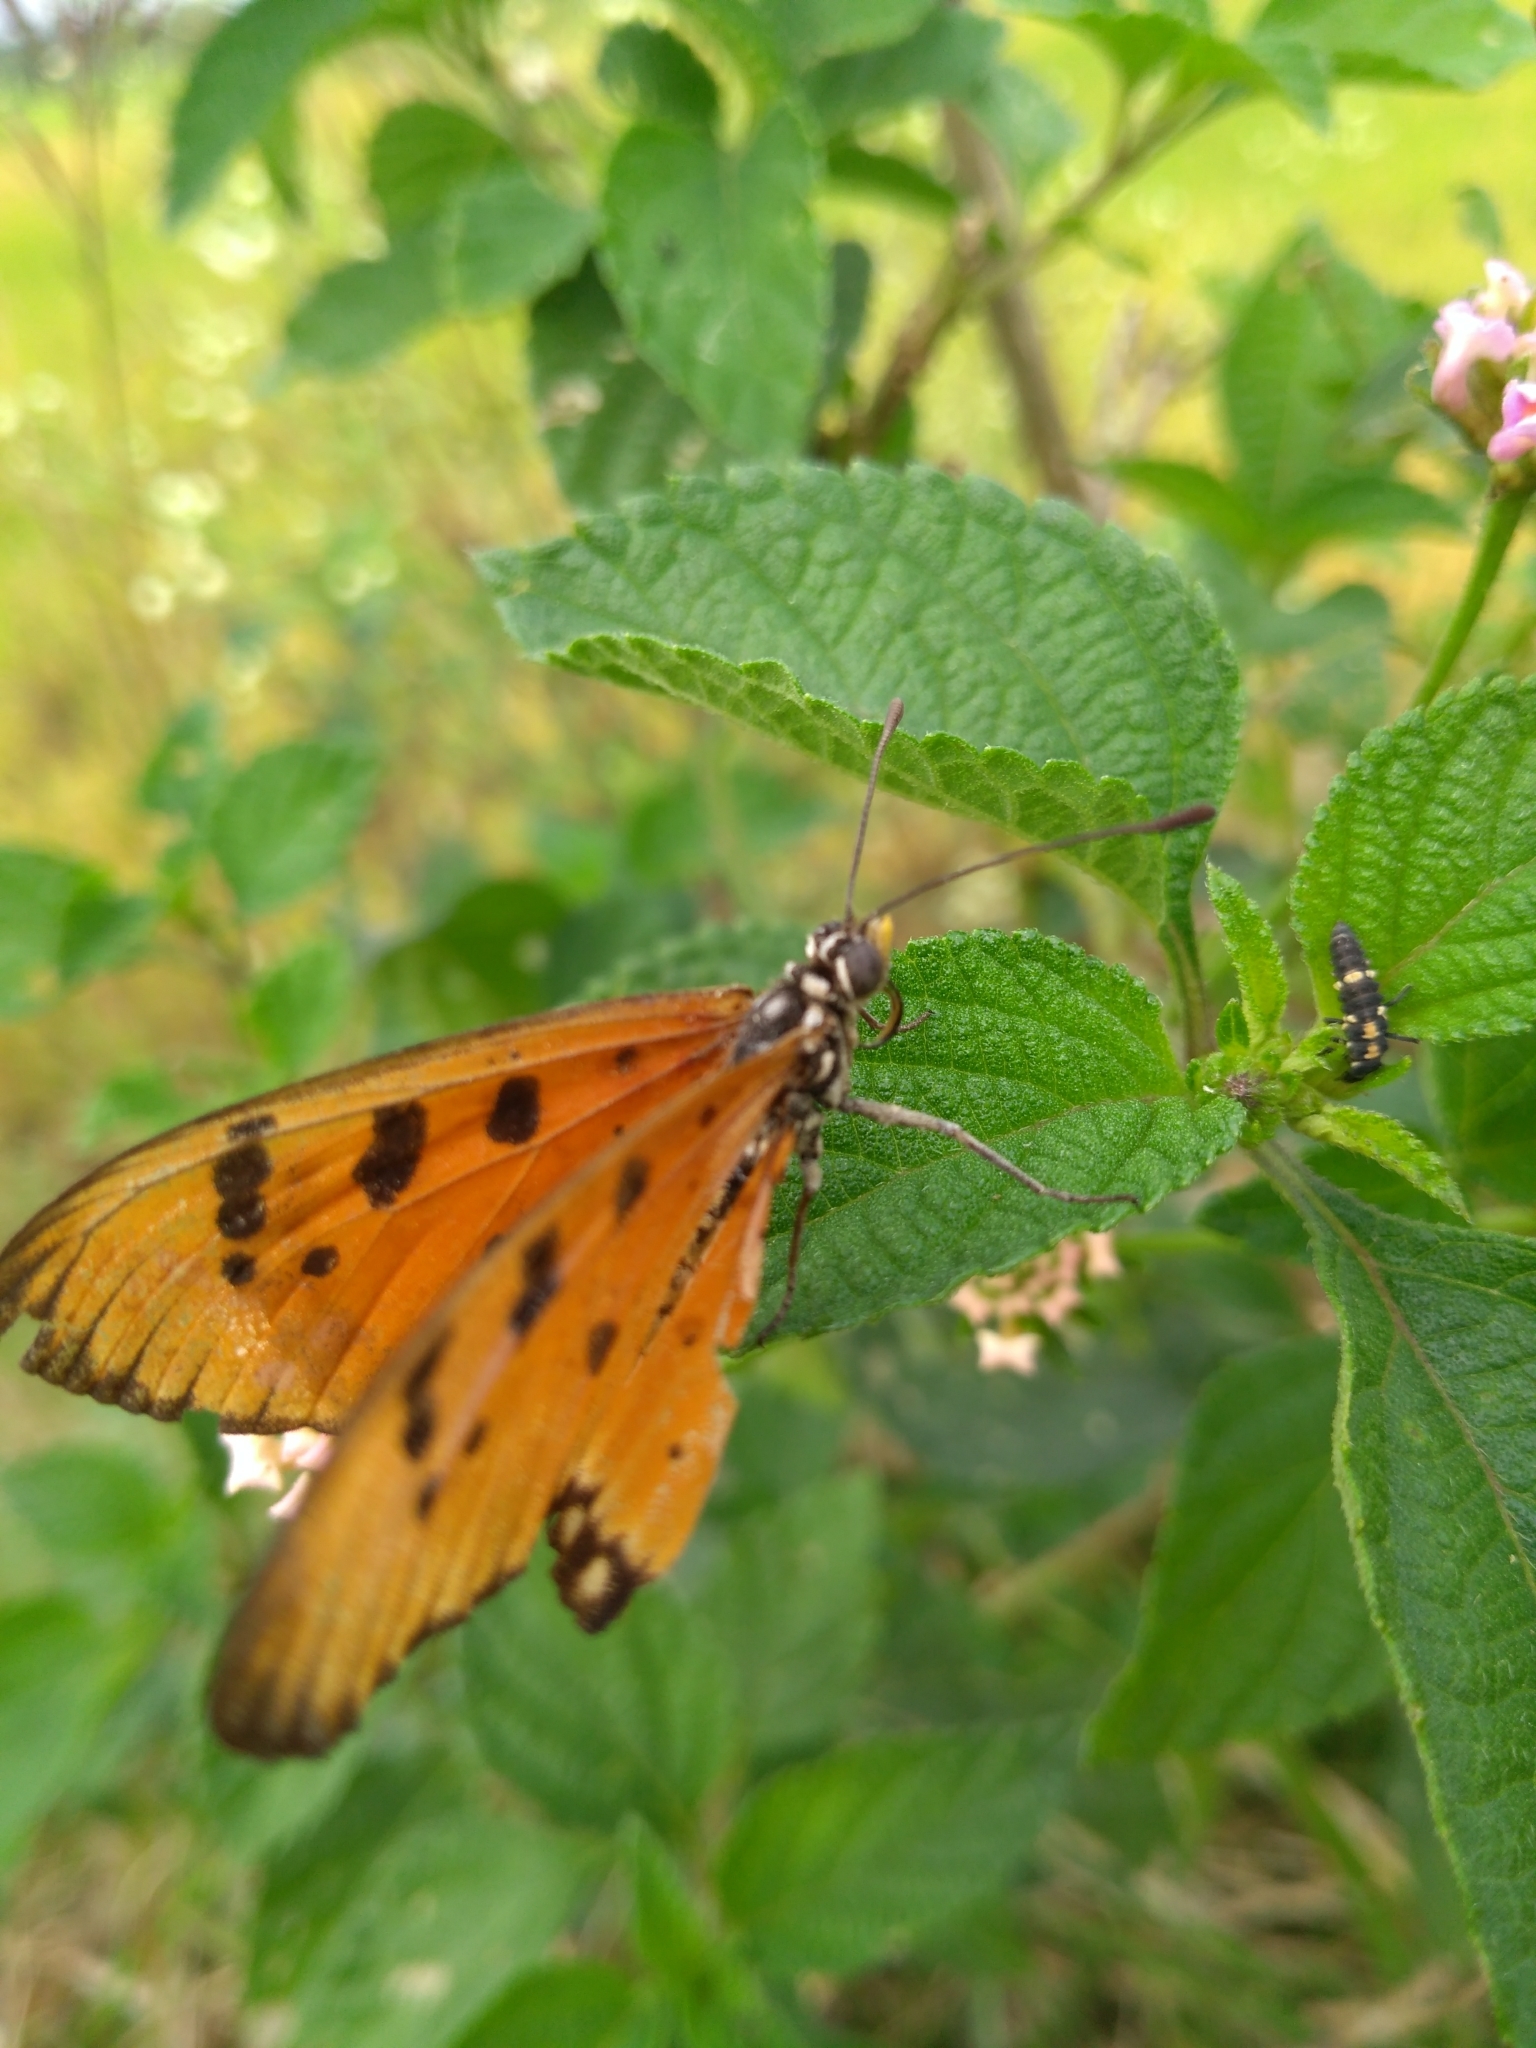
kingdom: Animalia
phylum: Arthropoda
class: Insecta
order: Lepidoptera
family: Nymphalidae
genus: Acraea
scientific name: Acraea terpsicore
